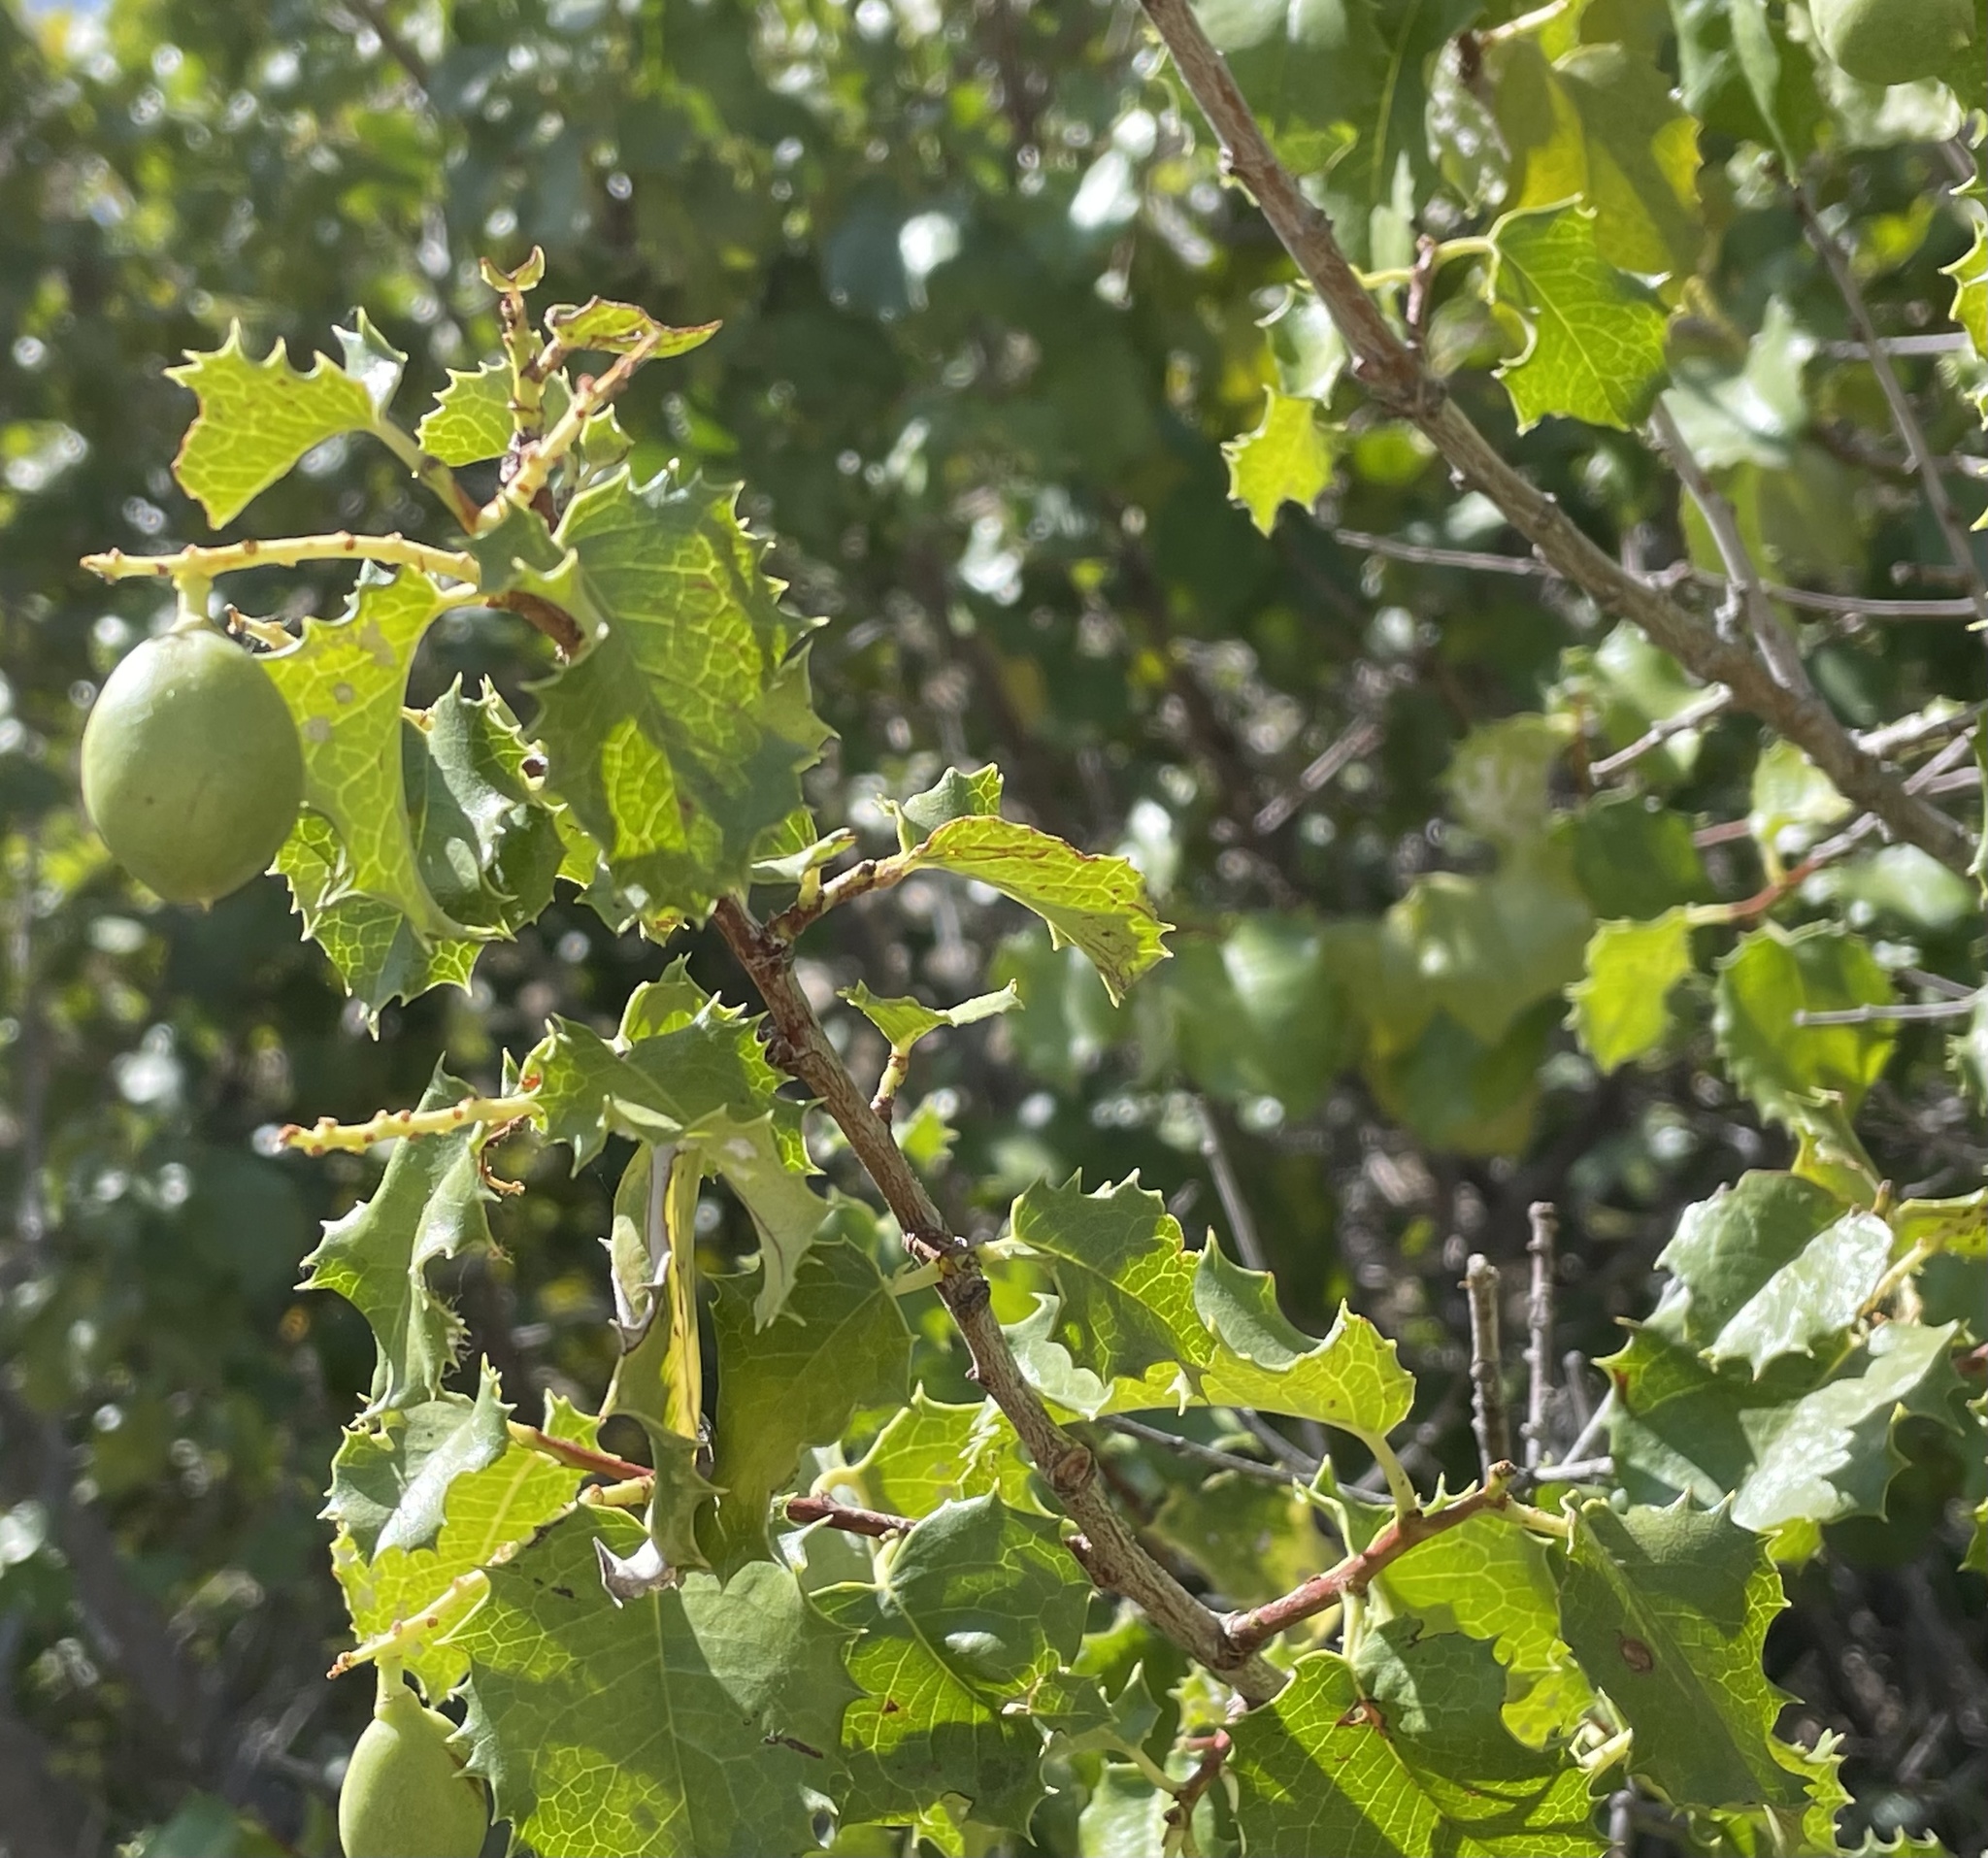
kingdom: Plantae
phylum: Tracheophyta
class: Magnoliopsida
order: Rosales
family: Rosaceae
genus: Prunus
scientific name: Prunus ilicifolia
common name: Hollyleaf cherry
